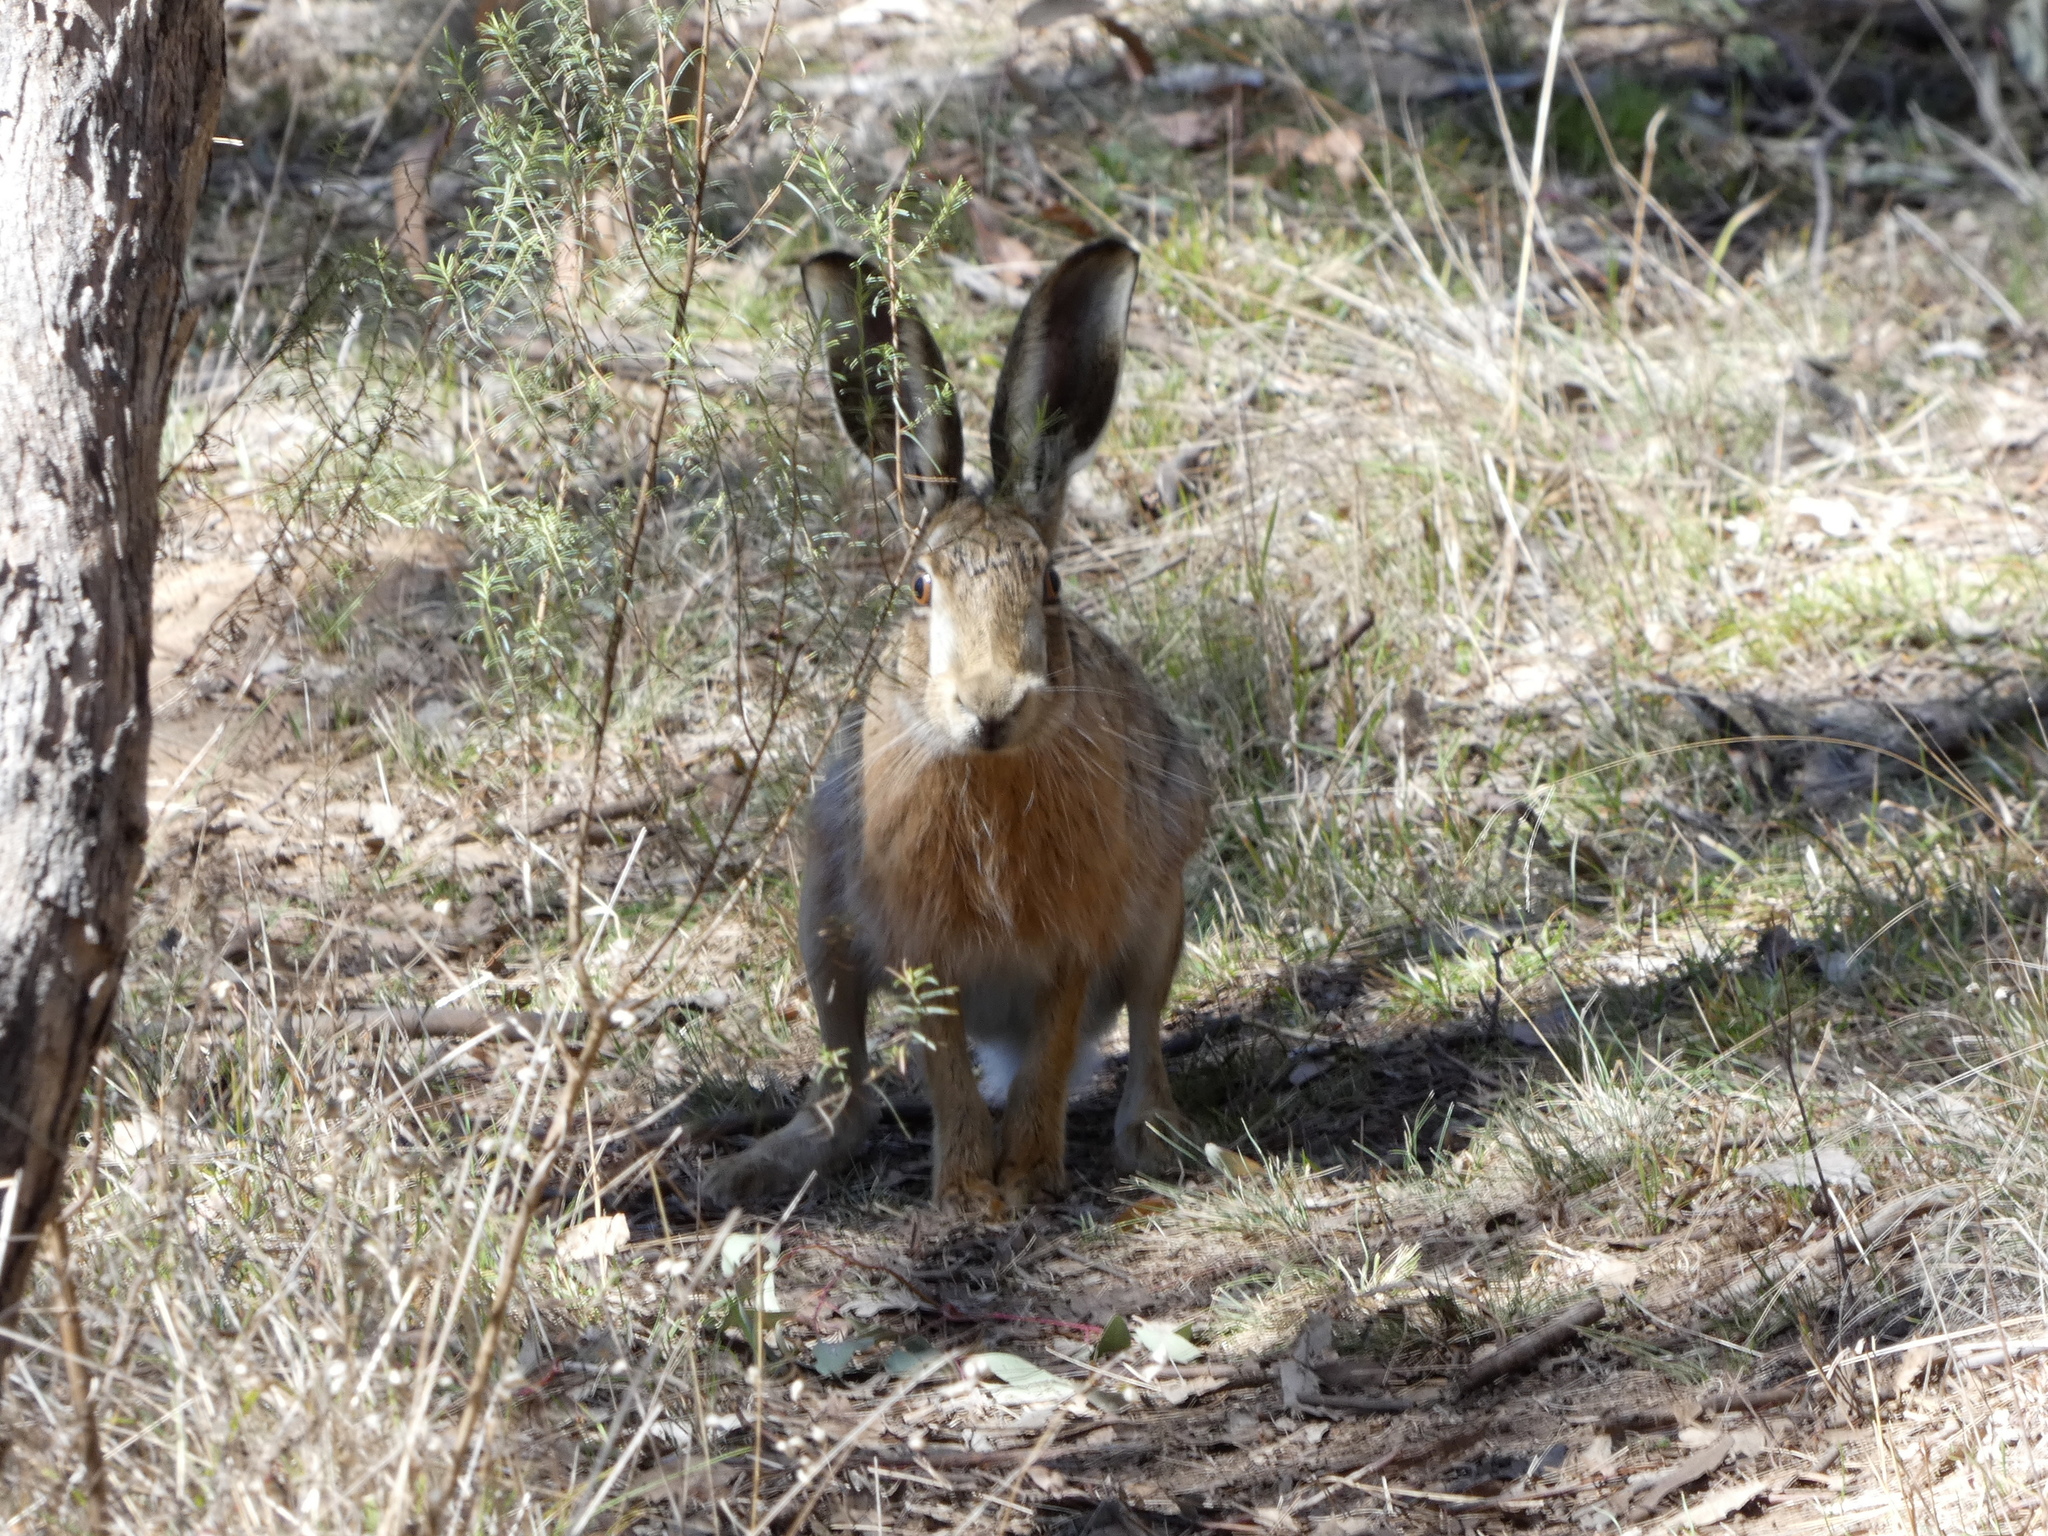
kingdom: Animalia
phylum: Chordata
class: Mammalia
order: Lagomorpha
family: Leporidae
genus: Lepus
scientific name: Lepus europaeus
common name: European hare
